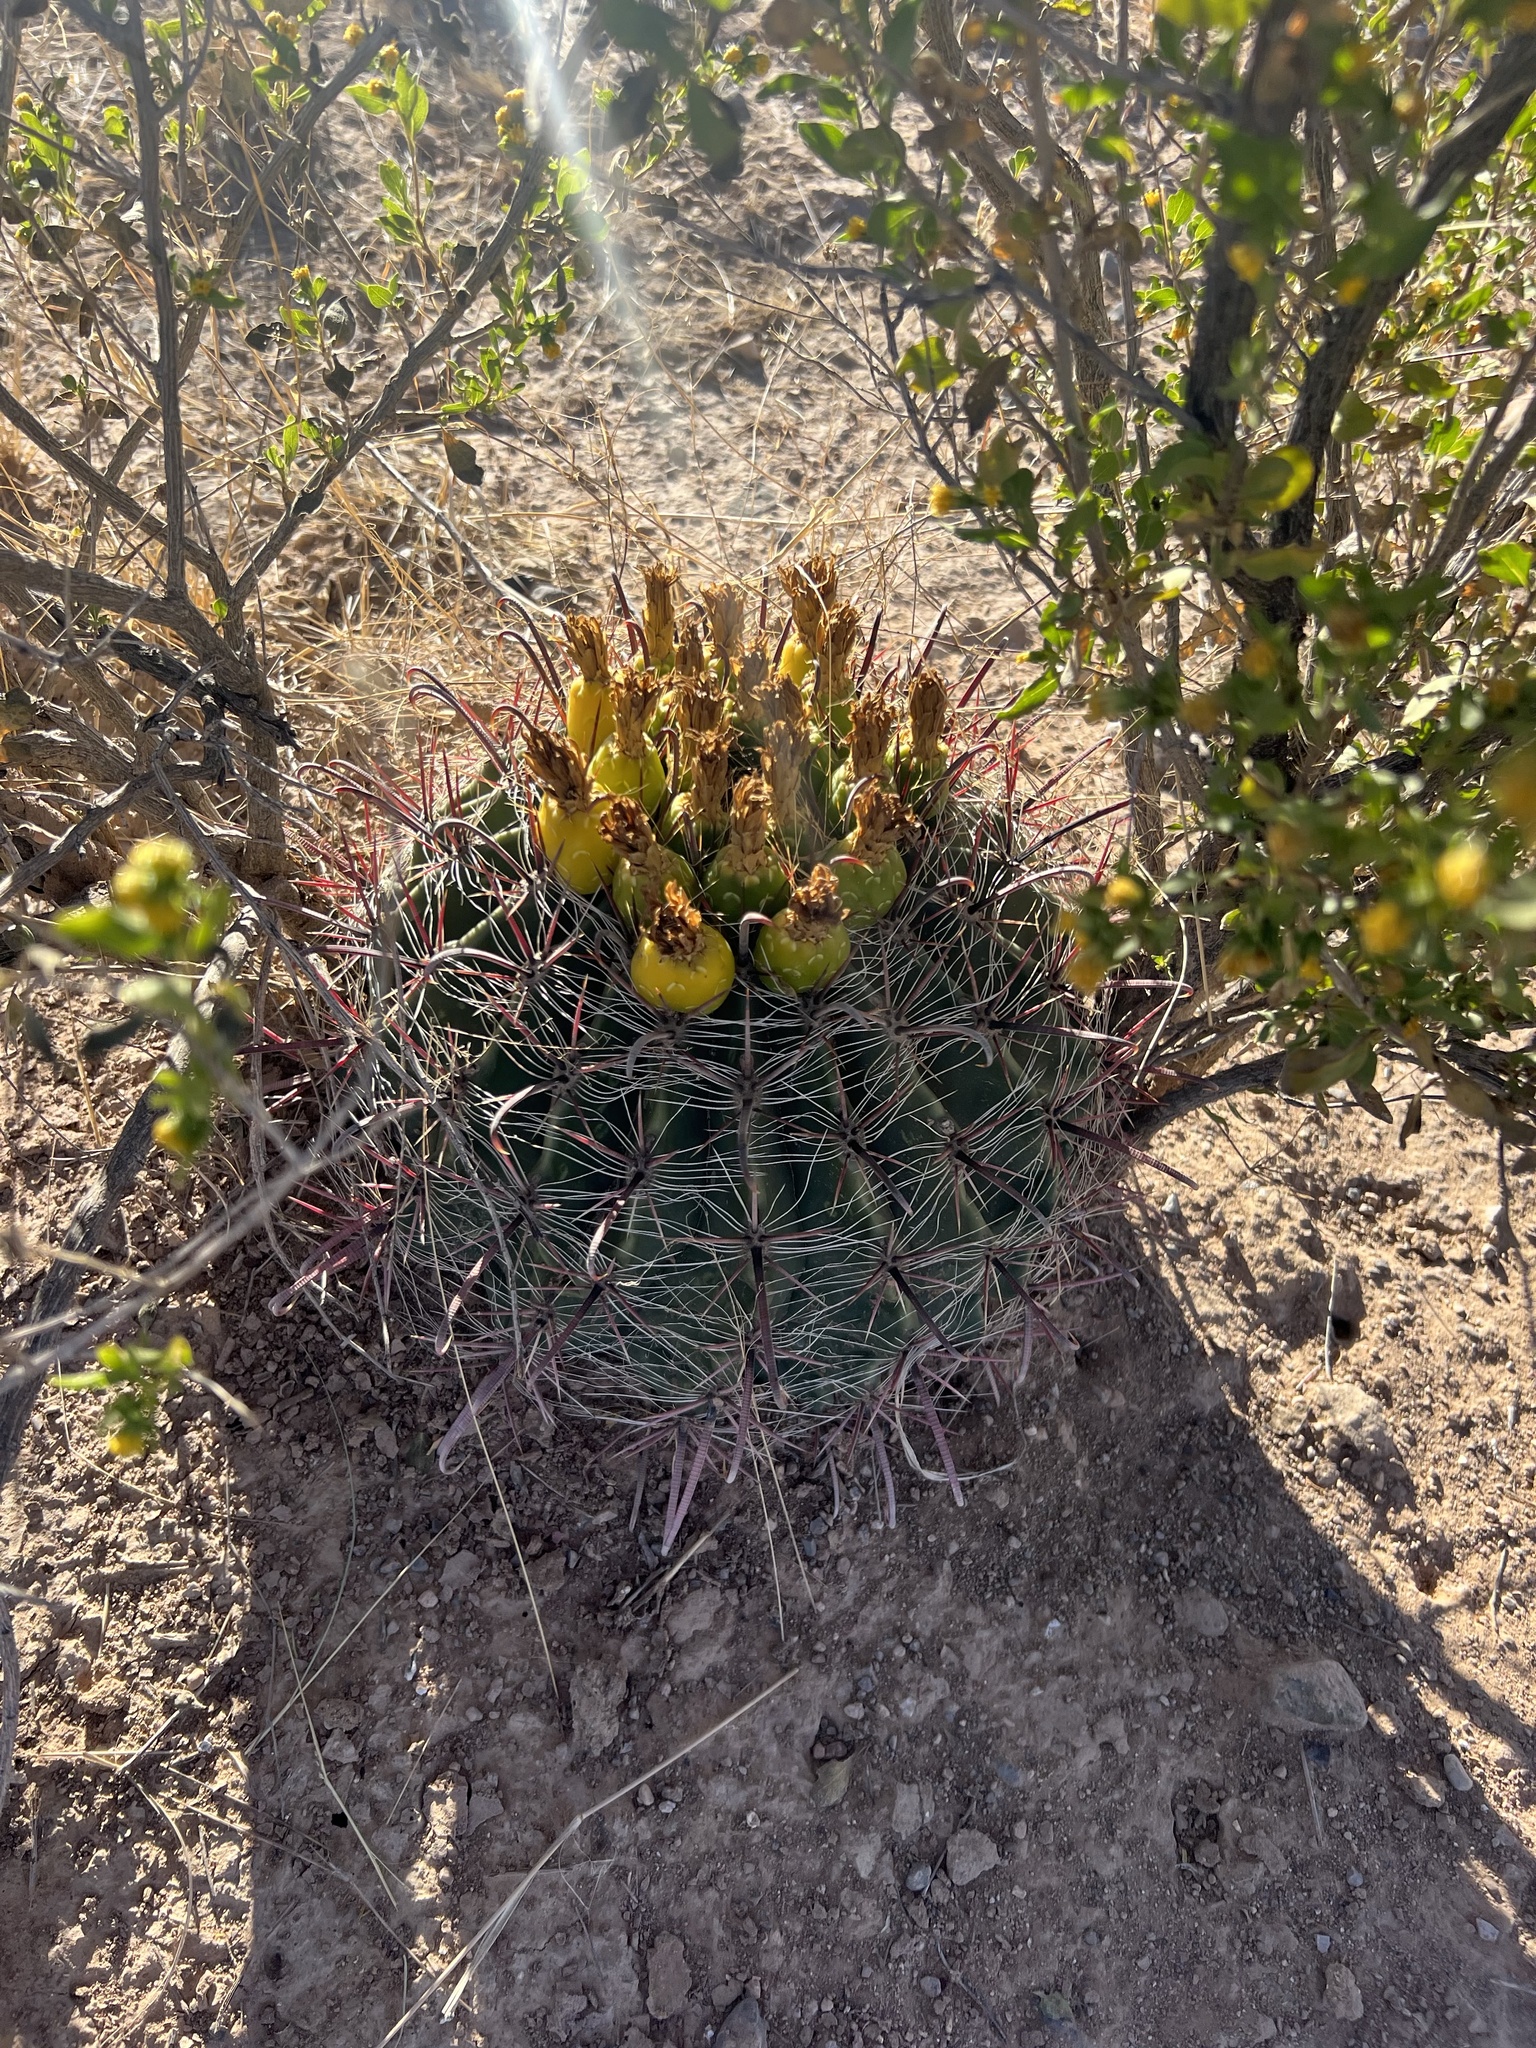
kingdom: Plantae
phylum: Tracheophyta
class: Magnoliopsida
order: Caryophyllales
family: Cactaceae
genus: Ferocactus
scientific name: Ferocactus wislizeni
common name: Candy barrel cactus
